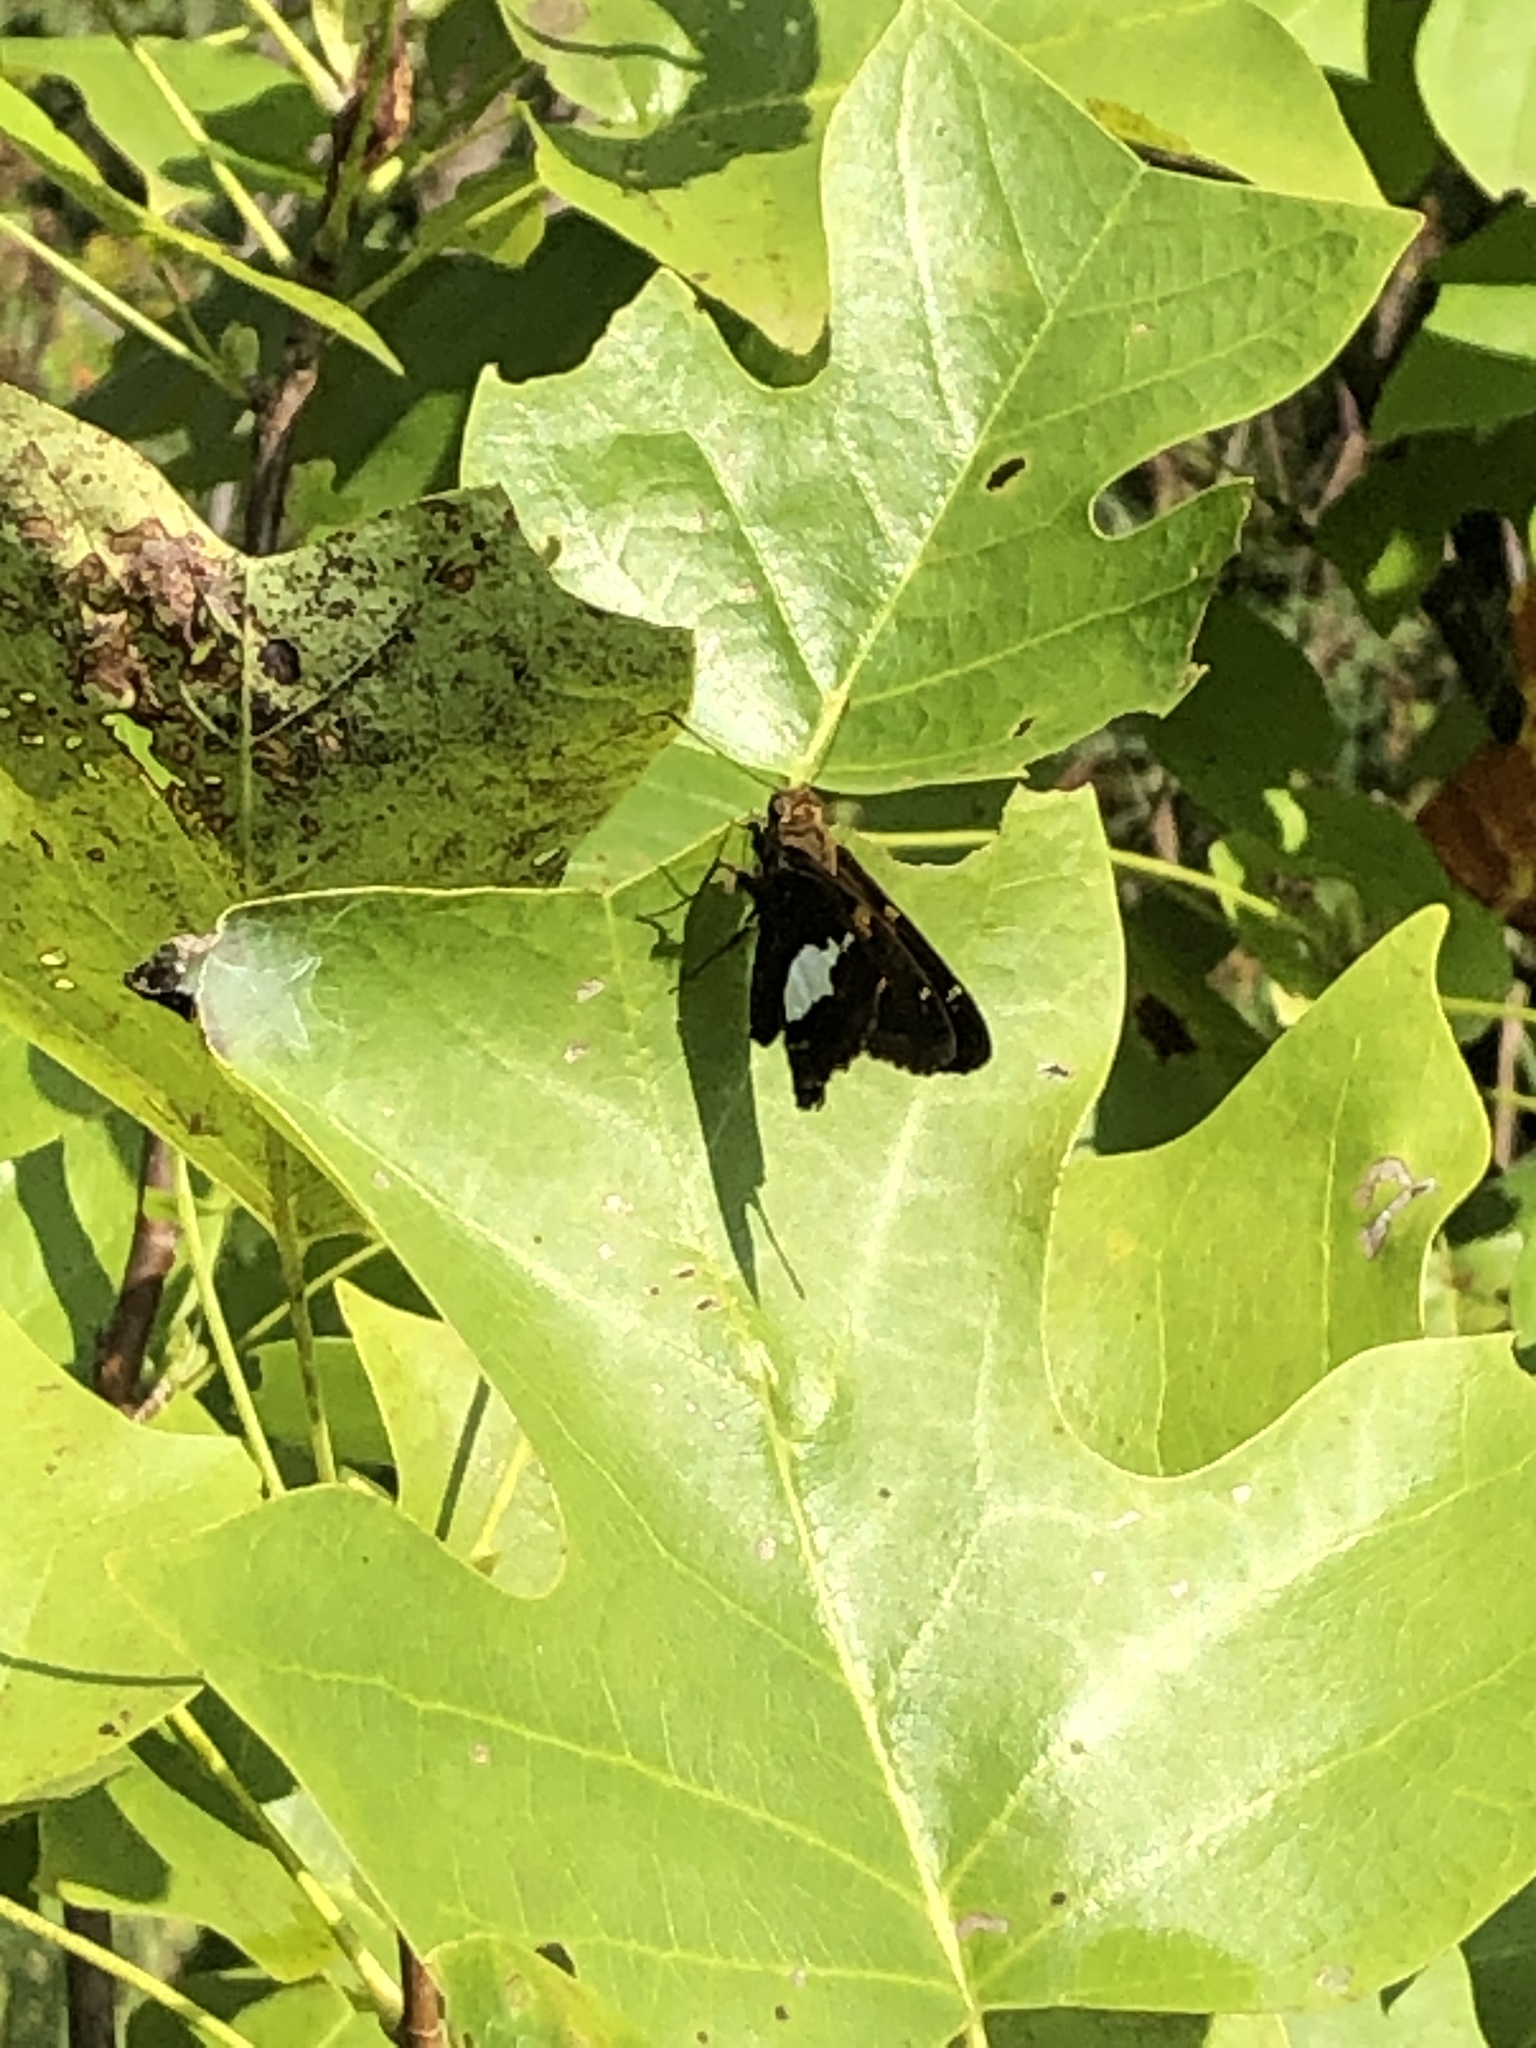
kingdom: Animalia
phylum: Arthropoda
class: Insecta
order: Lepidoptera
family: Hesperiidae
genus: Epargyreus
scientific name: Epargyreus clarus
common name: Silver-spotted skipper
